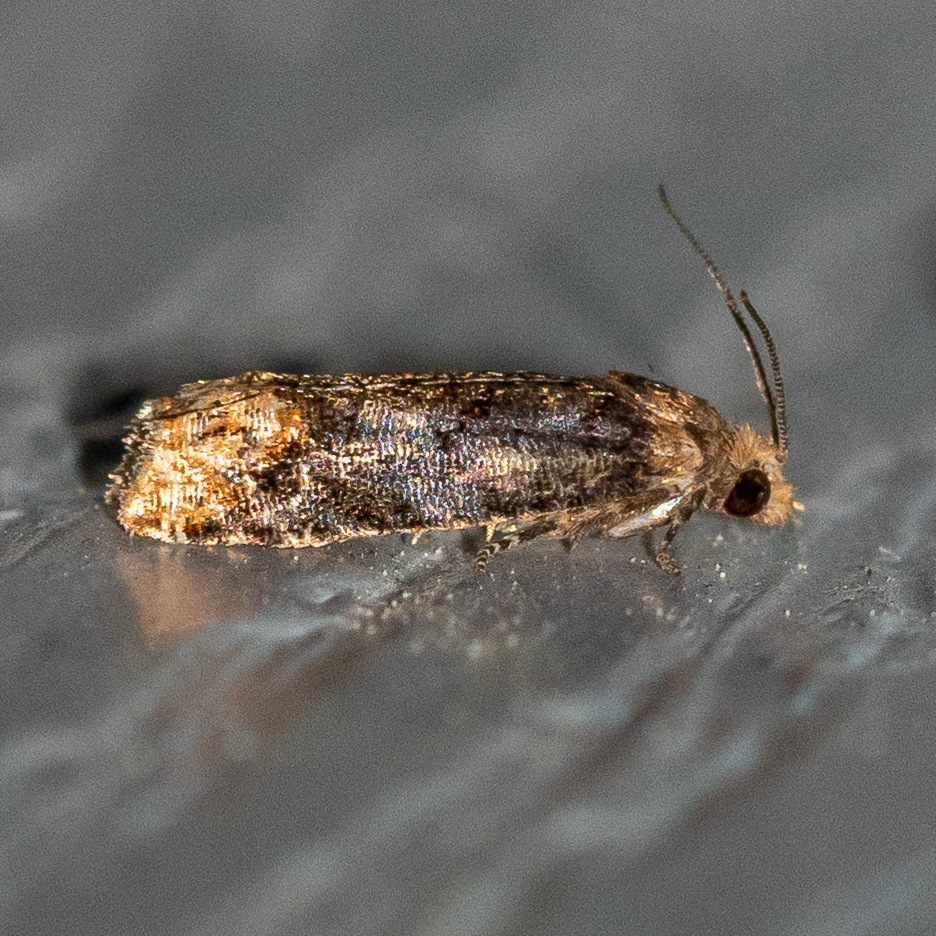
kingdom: Animalia
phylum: Arthropoda
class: Insecta
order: Lepidoptera
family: Tortricidae
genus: Eucosma
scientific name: Eucosma ochroterminana
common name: Buff-tipped eucosma moth
